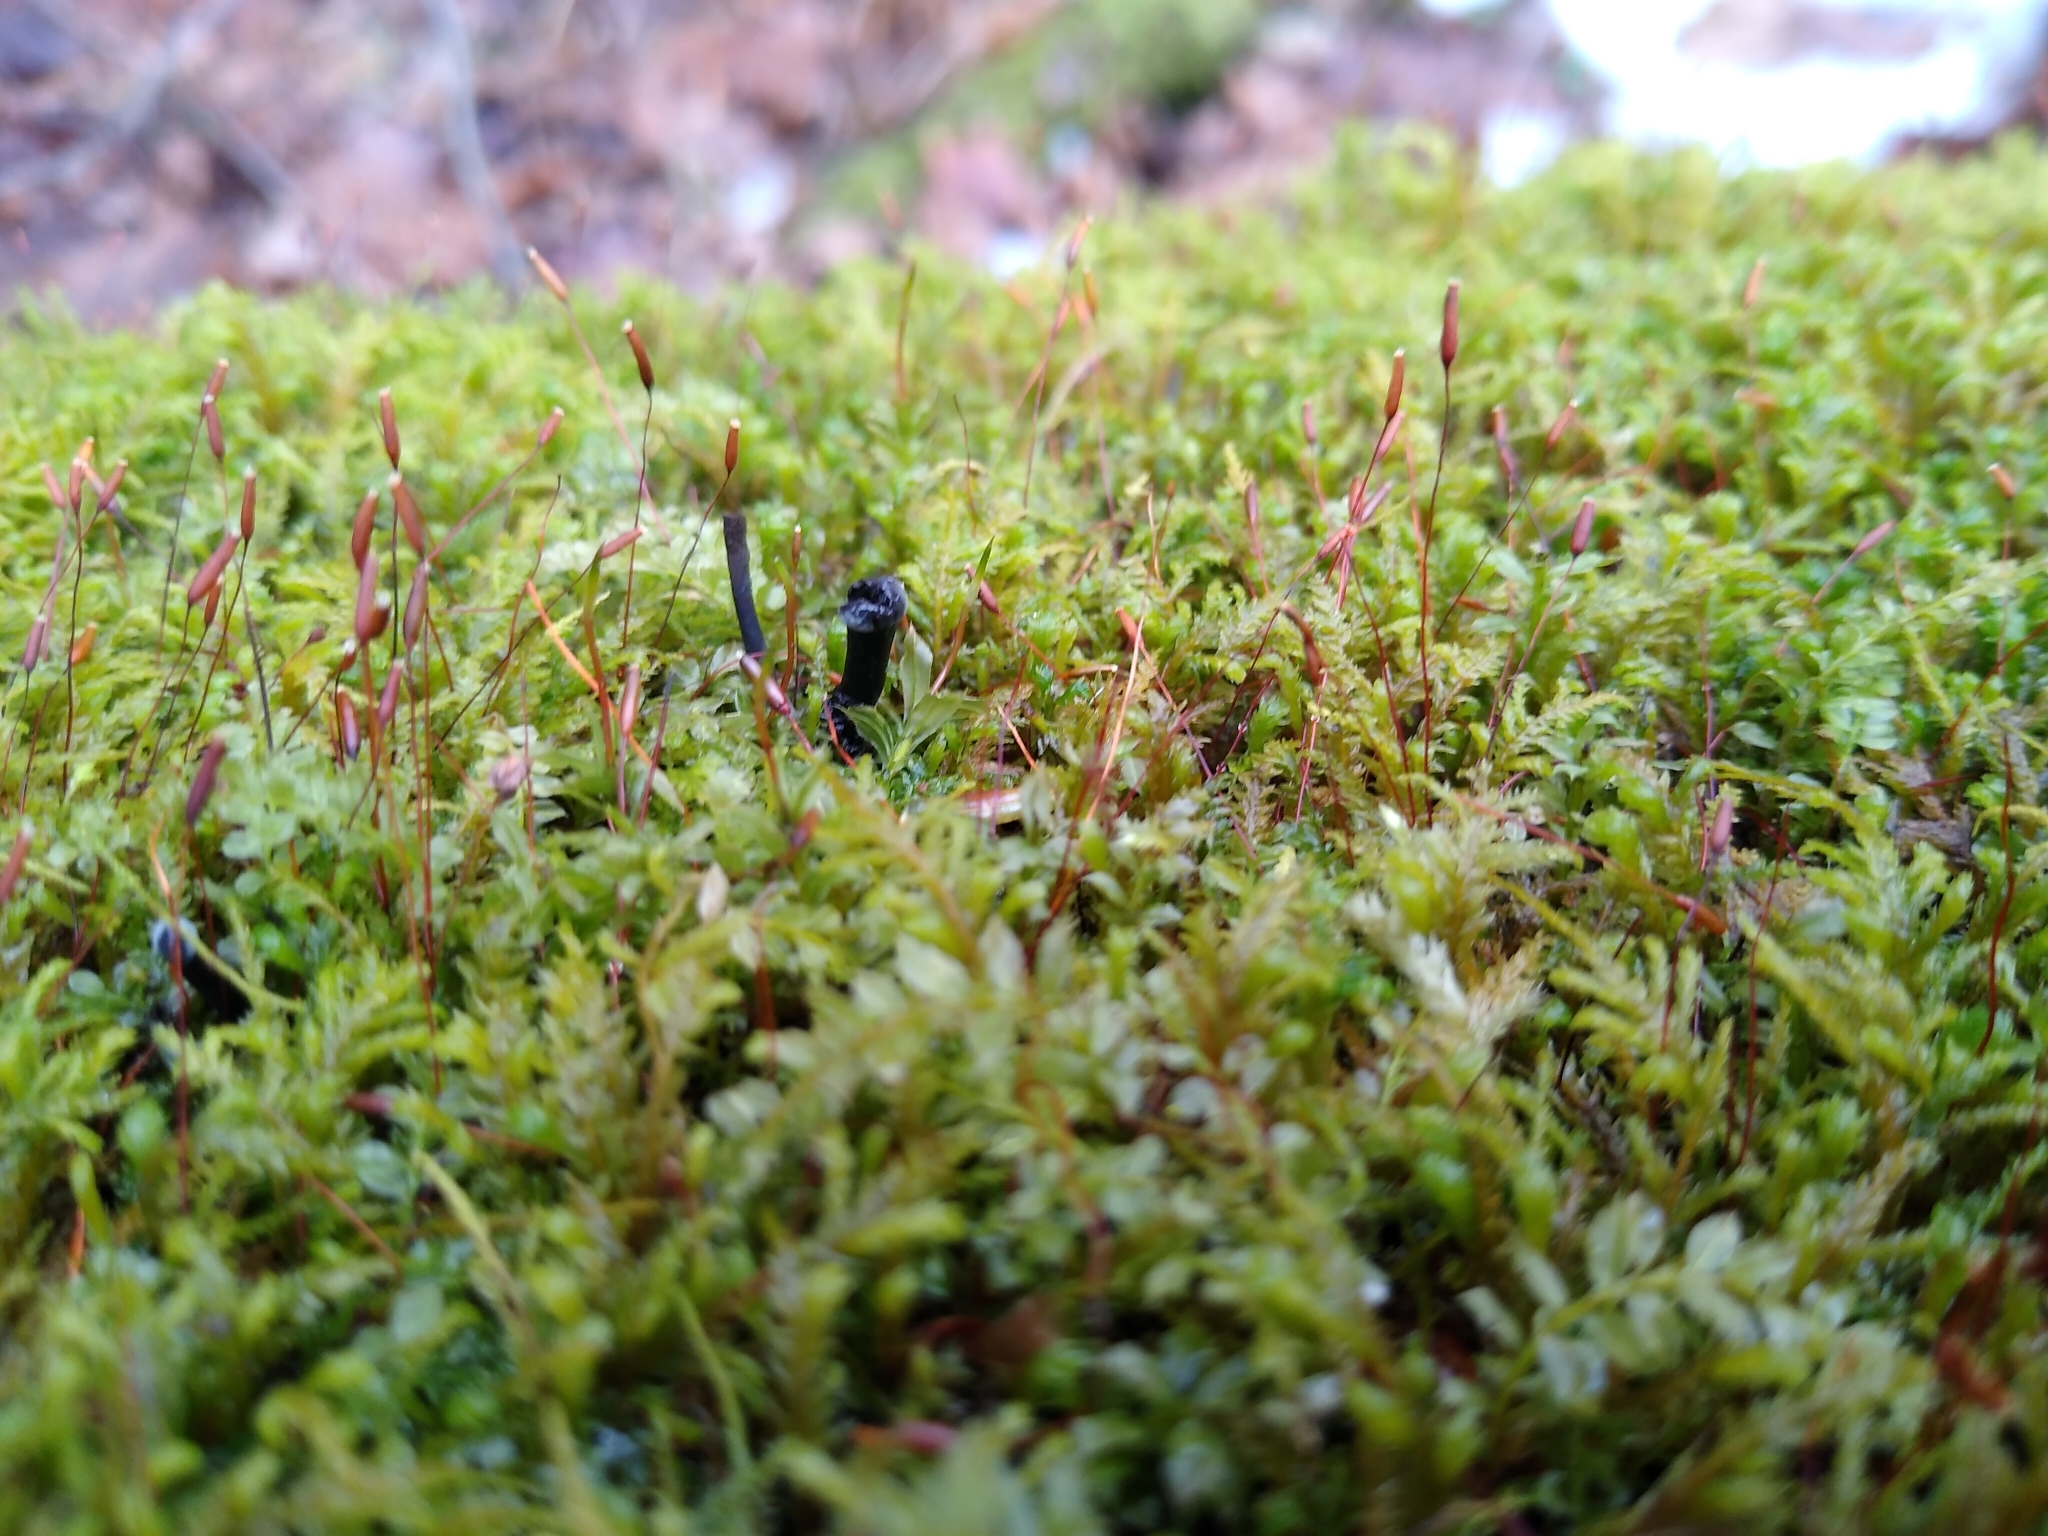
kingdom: Fungi
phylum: Ascomycota
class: Leotiomycetes
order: Helotiales
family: Bulgariaceae
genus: Holwaya
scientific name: Holwaya mucida
